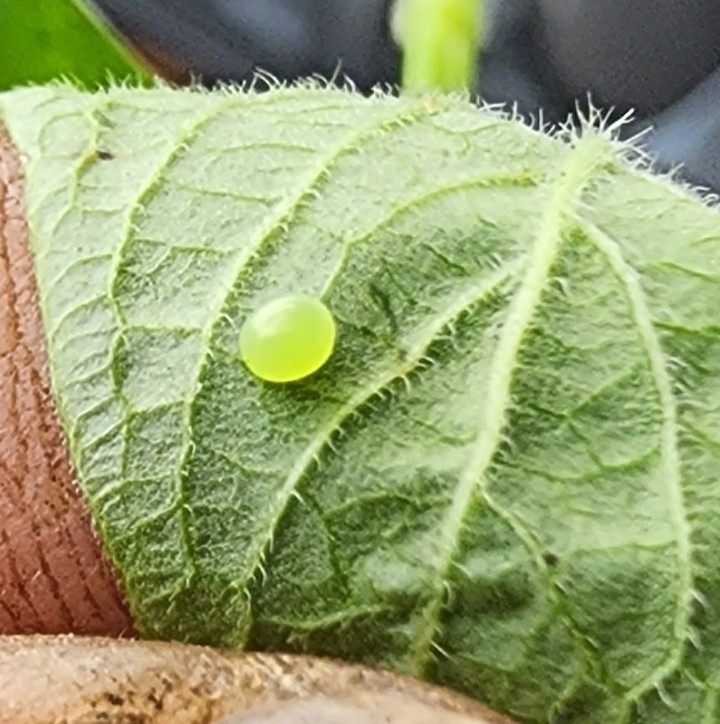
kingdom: Animalia
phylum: Arthropoda
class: Insecta
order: Lepidoptera
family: Sphingidae
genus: Xylophanes
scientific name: Xylophanes tersa
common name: Tersa sphinx
